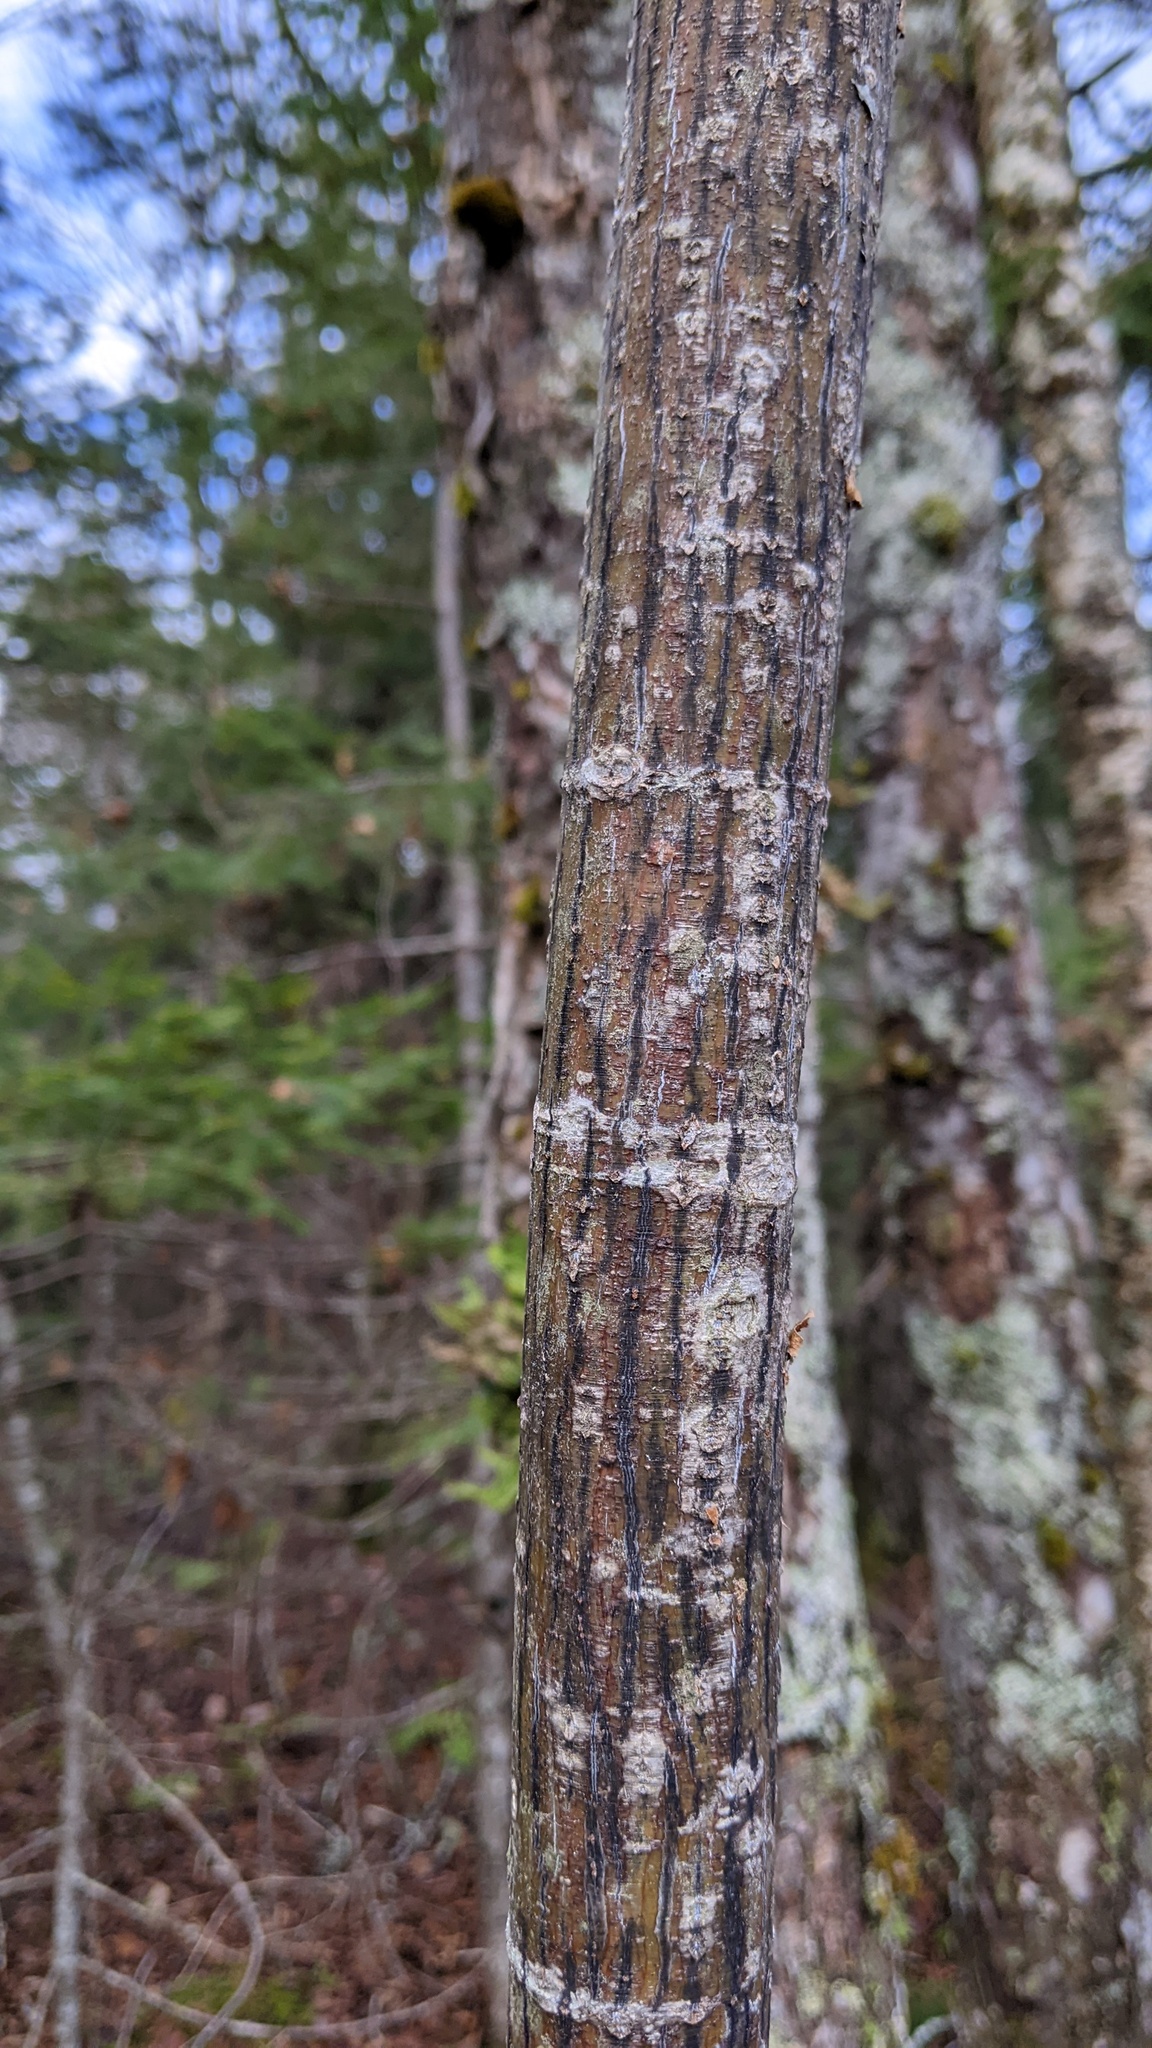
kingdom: Plantae
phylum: Tracheophyta
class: Magnoliopsida
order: Sapindales
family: Sapindaceae
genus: Acer
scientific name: Acer pensylvanicum
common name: Moosewood
